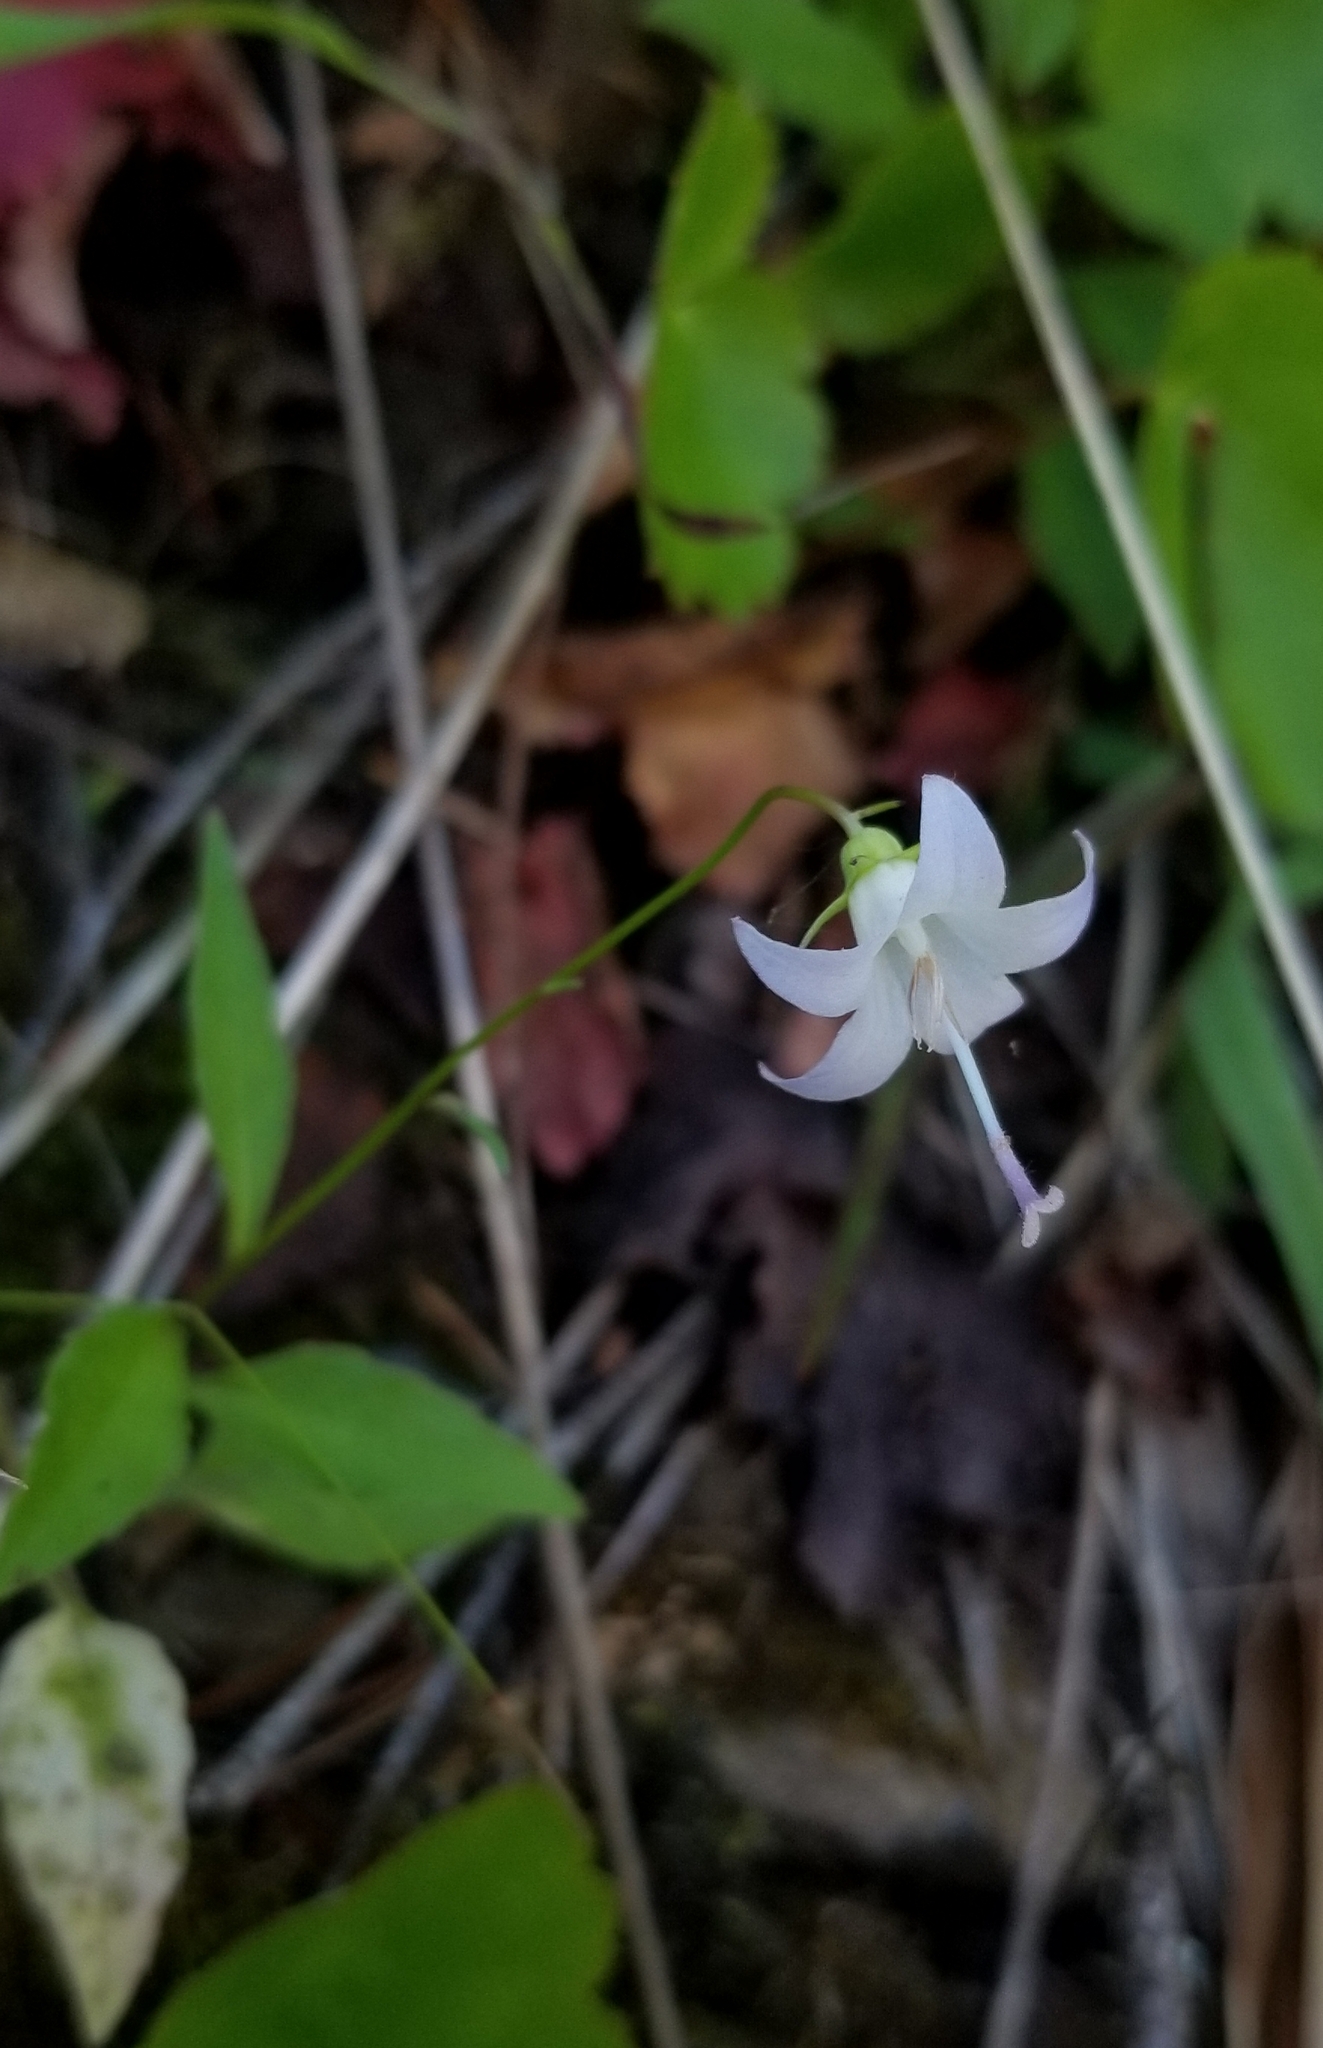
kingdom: Plantae
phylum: Tracheophyta
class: Magnoliopsida
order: Asterales
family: Campanulaceae
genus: Campanula
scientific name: Campanula scouleri
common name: Scouler's harebell
